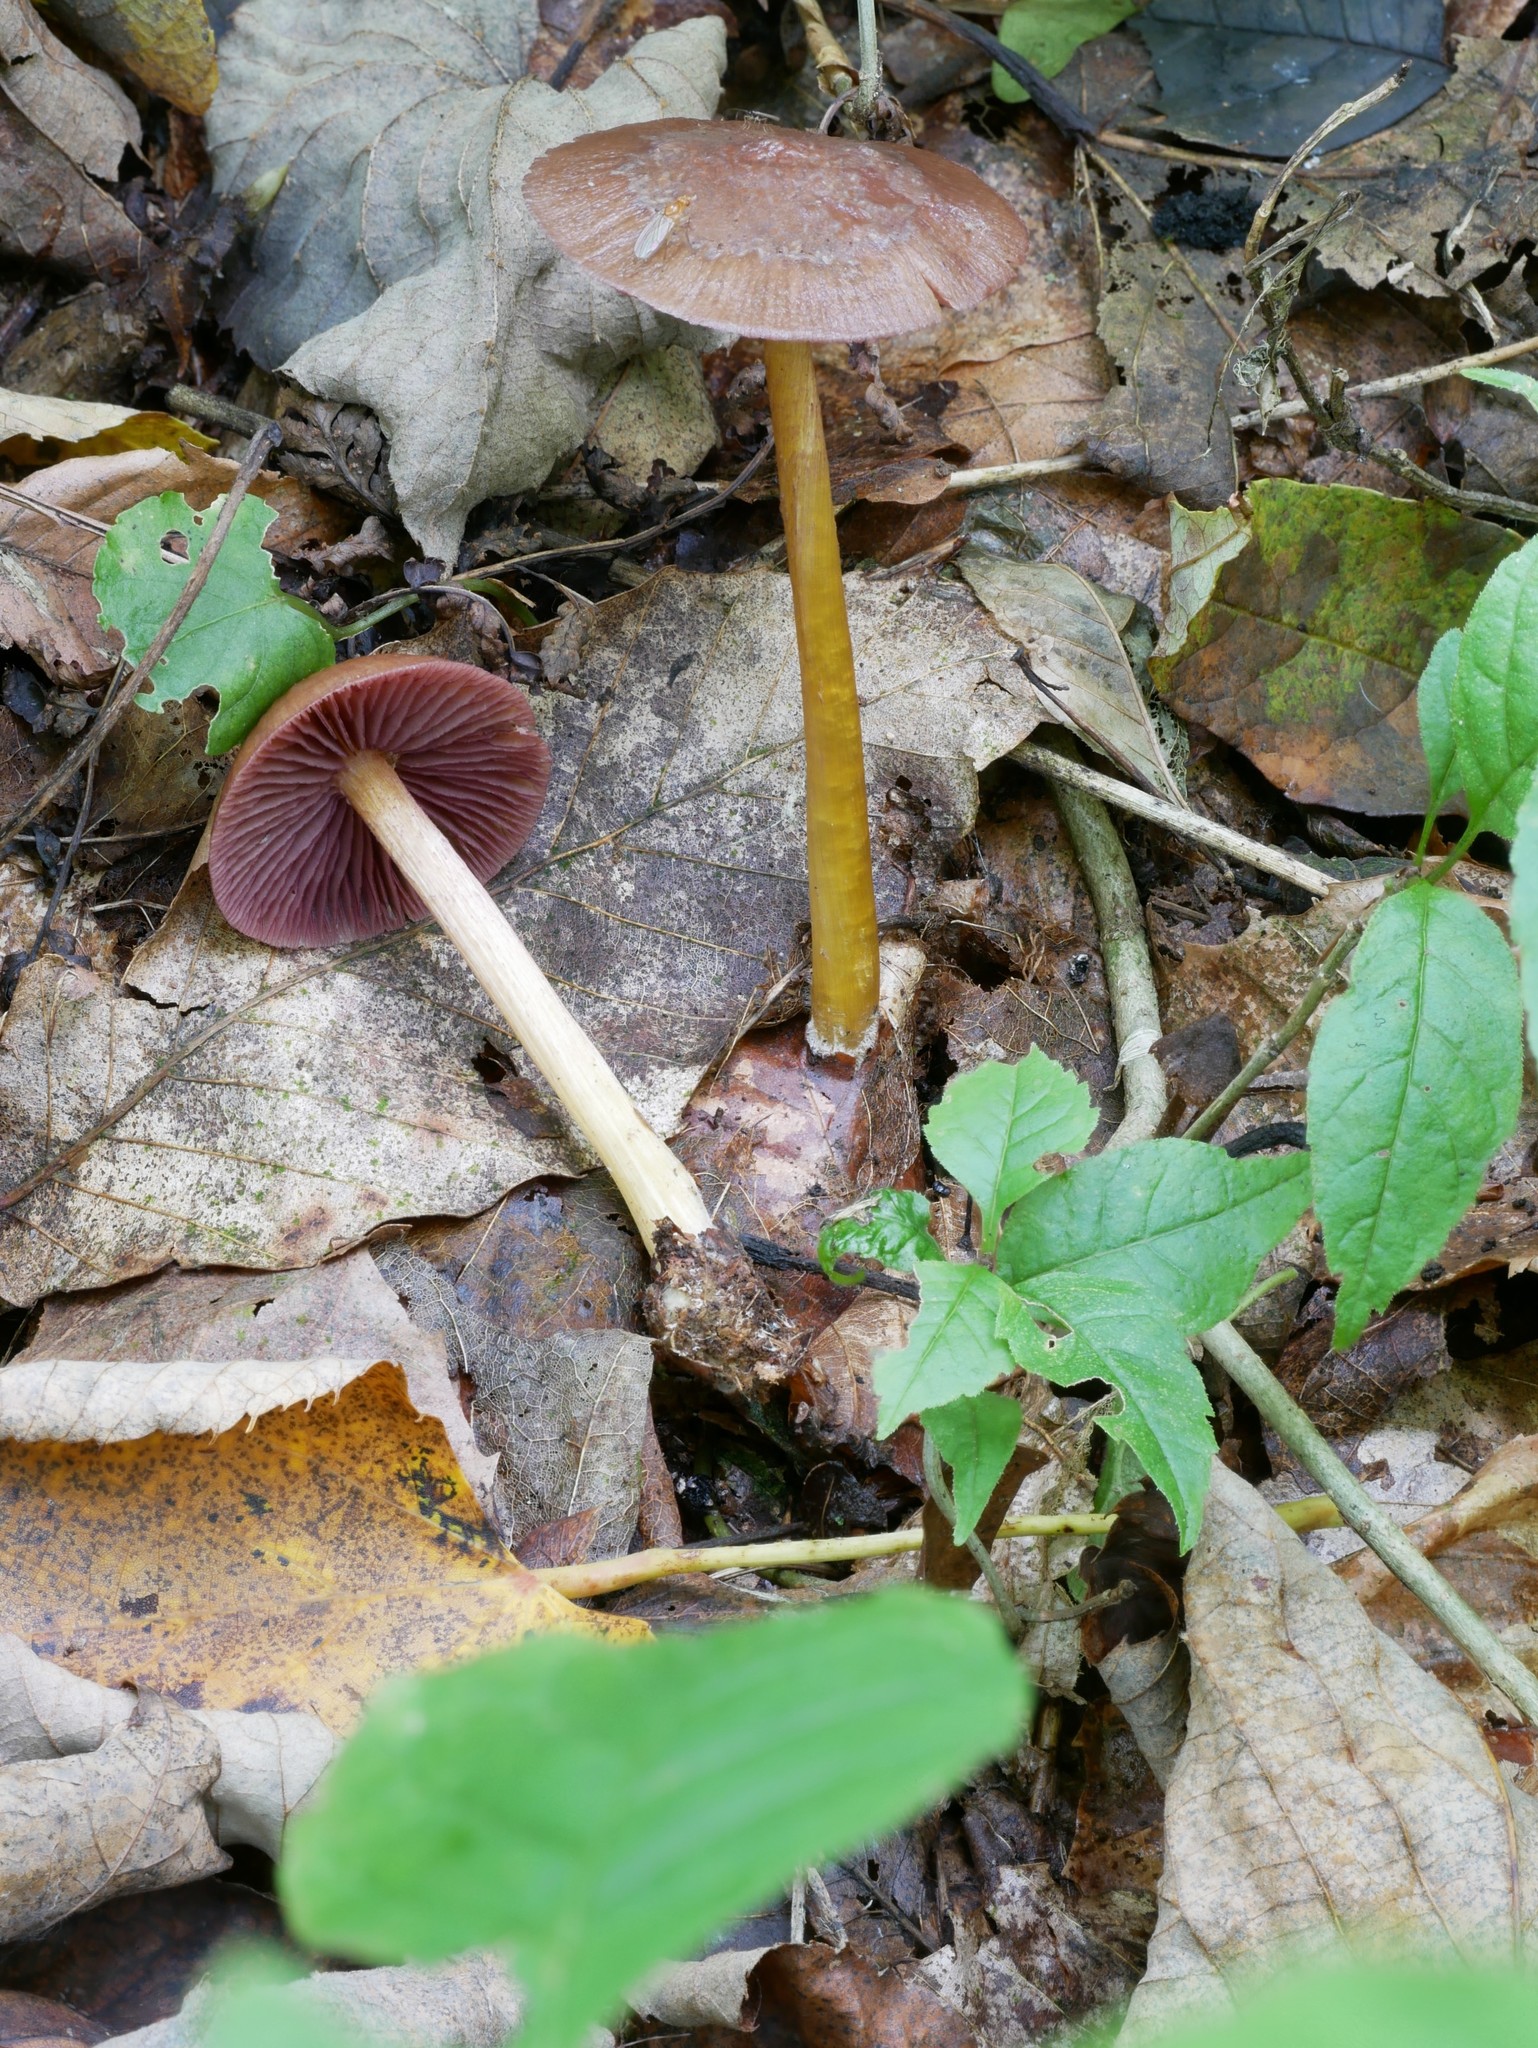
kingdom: Fungi
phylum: Basidiomycota
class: Agaricomycetes
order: Agaricales
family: Mycenaceae
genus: Mycena
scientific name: Mycena denticulata
